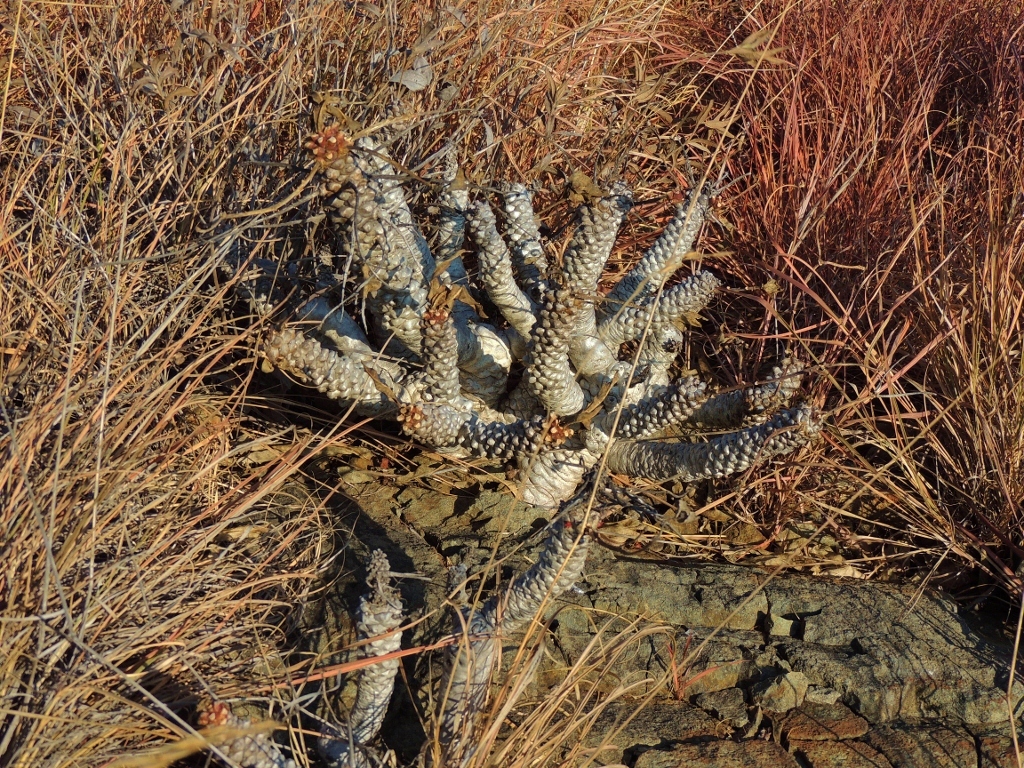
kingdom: Plantae
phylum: Tracheophyta
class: Magnoliopsida
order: Malpighiales
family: Euphorbiaceae
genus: Euphorbia
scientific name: Euphorbia wildii
